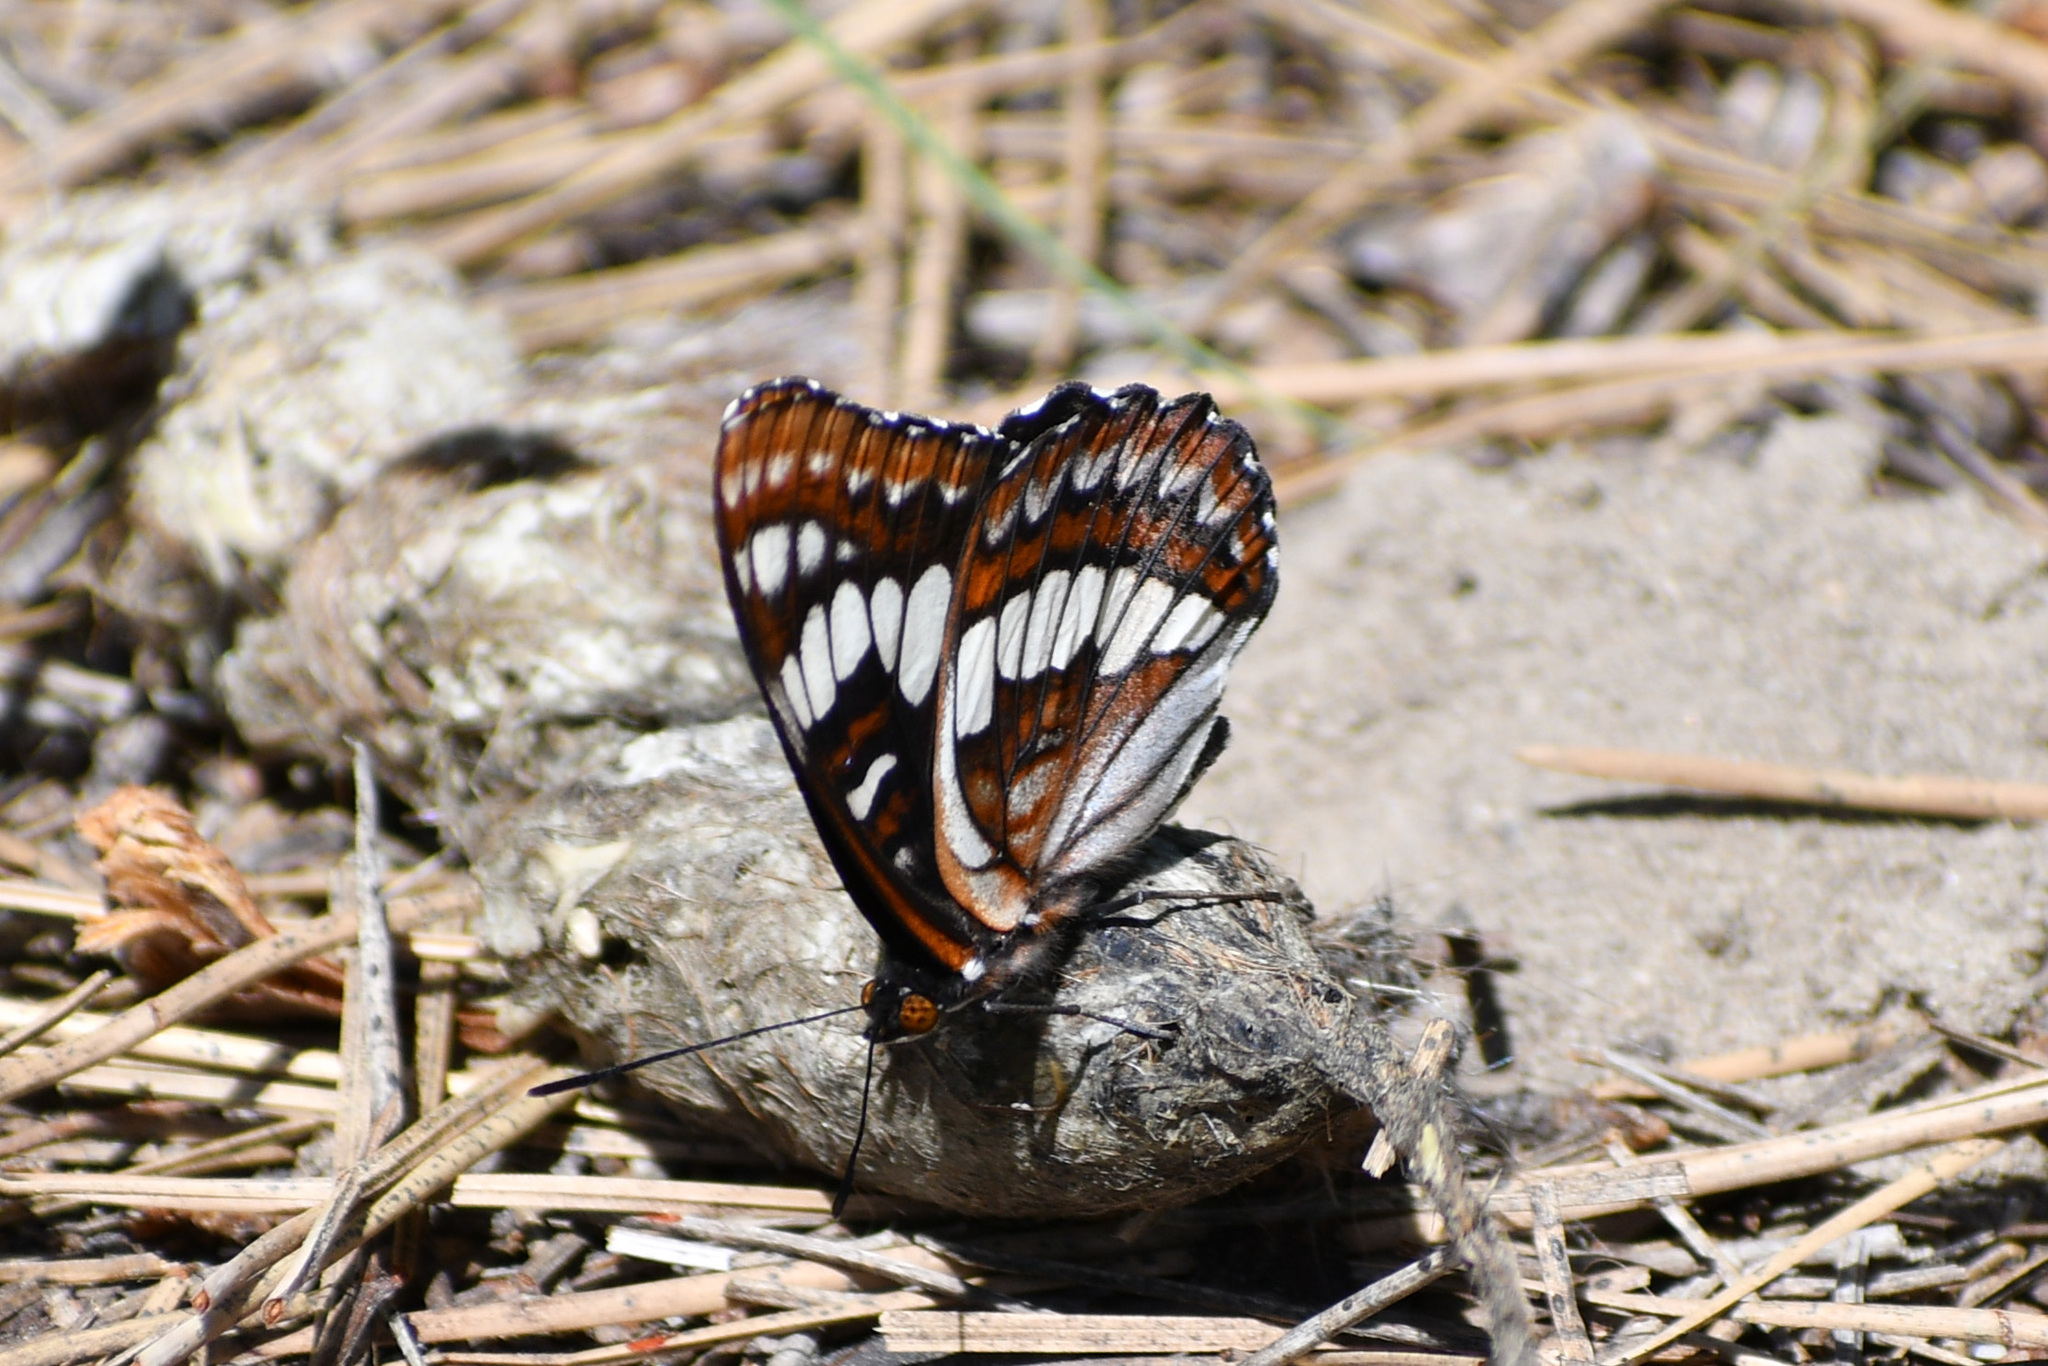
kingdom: Animalia
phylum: Arthropoda
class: Insecta
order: Lepidoptera
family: Nymphalidae
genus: Limenitis
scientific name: Limenitis lorquini
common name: Lorquin's admiral
